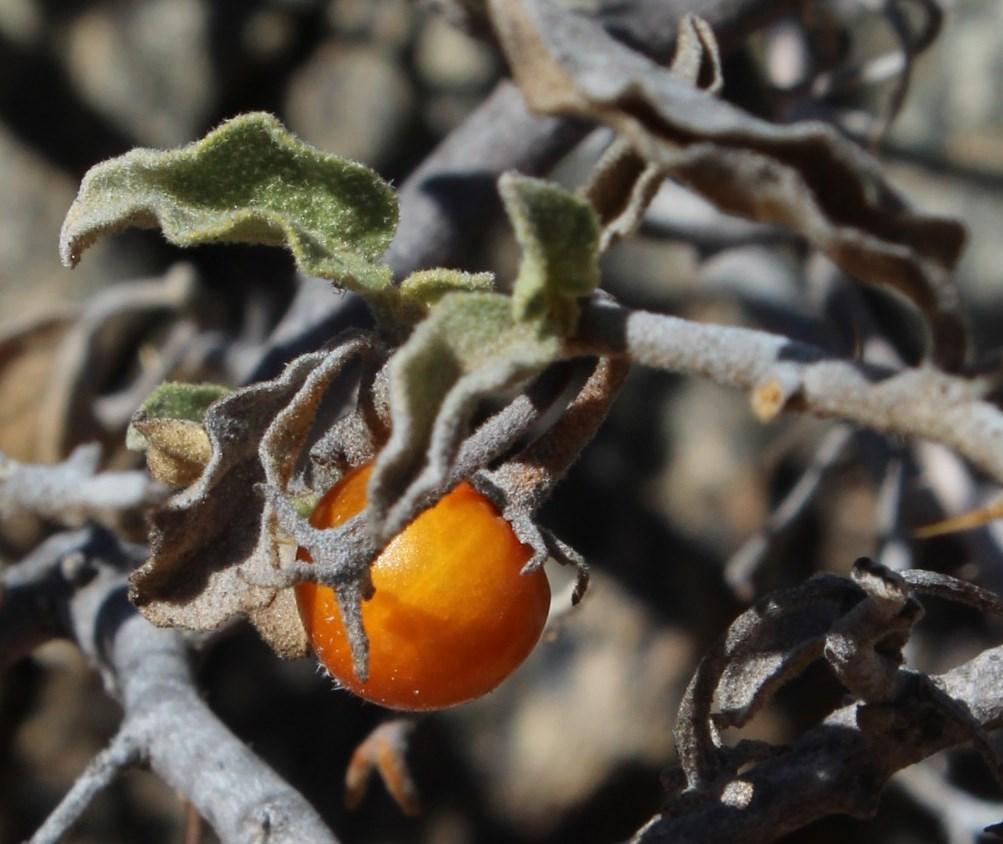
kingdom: Plantae
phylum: Tracheophyta
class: Magnoliopsida
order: Solanales
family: Solanaceae
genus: Solanum
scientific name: Solanum burchellii
